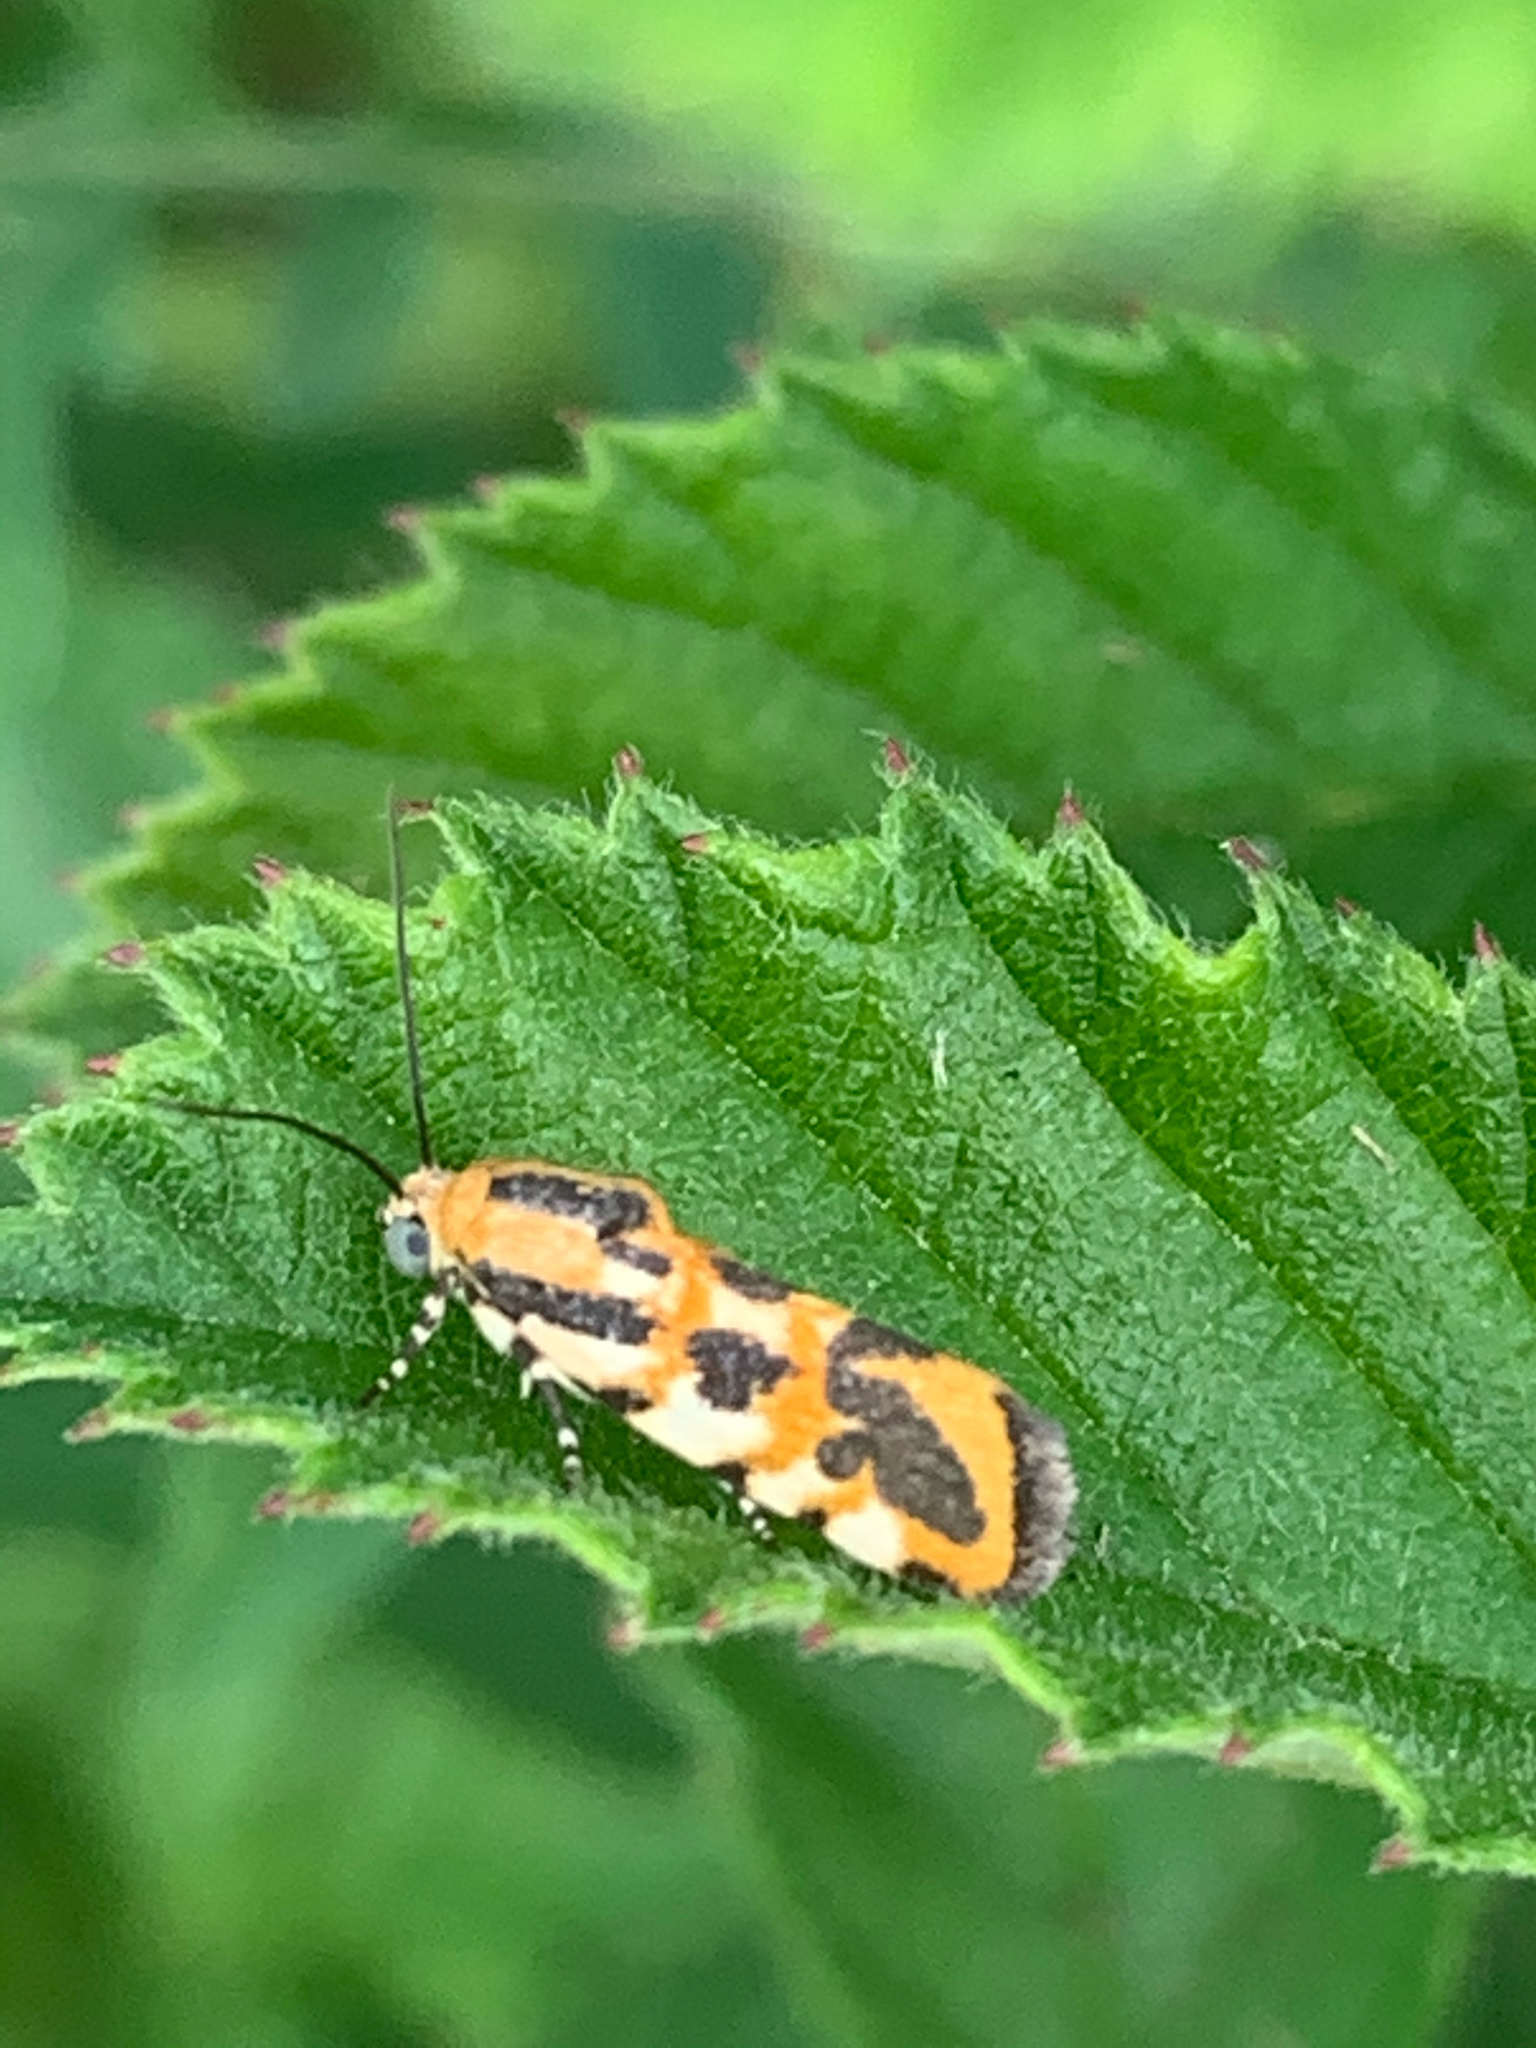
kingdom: Animalia
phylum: Arthropoda
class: Insecta
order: Lepidoptera
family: Noctuidae
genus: Acontia
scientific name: Acontia leo
